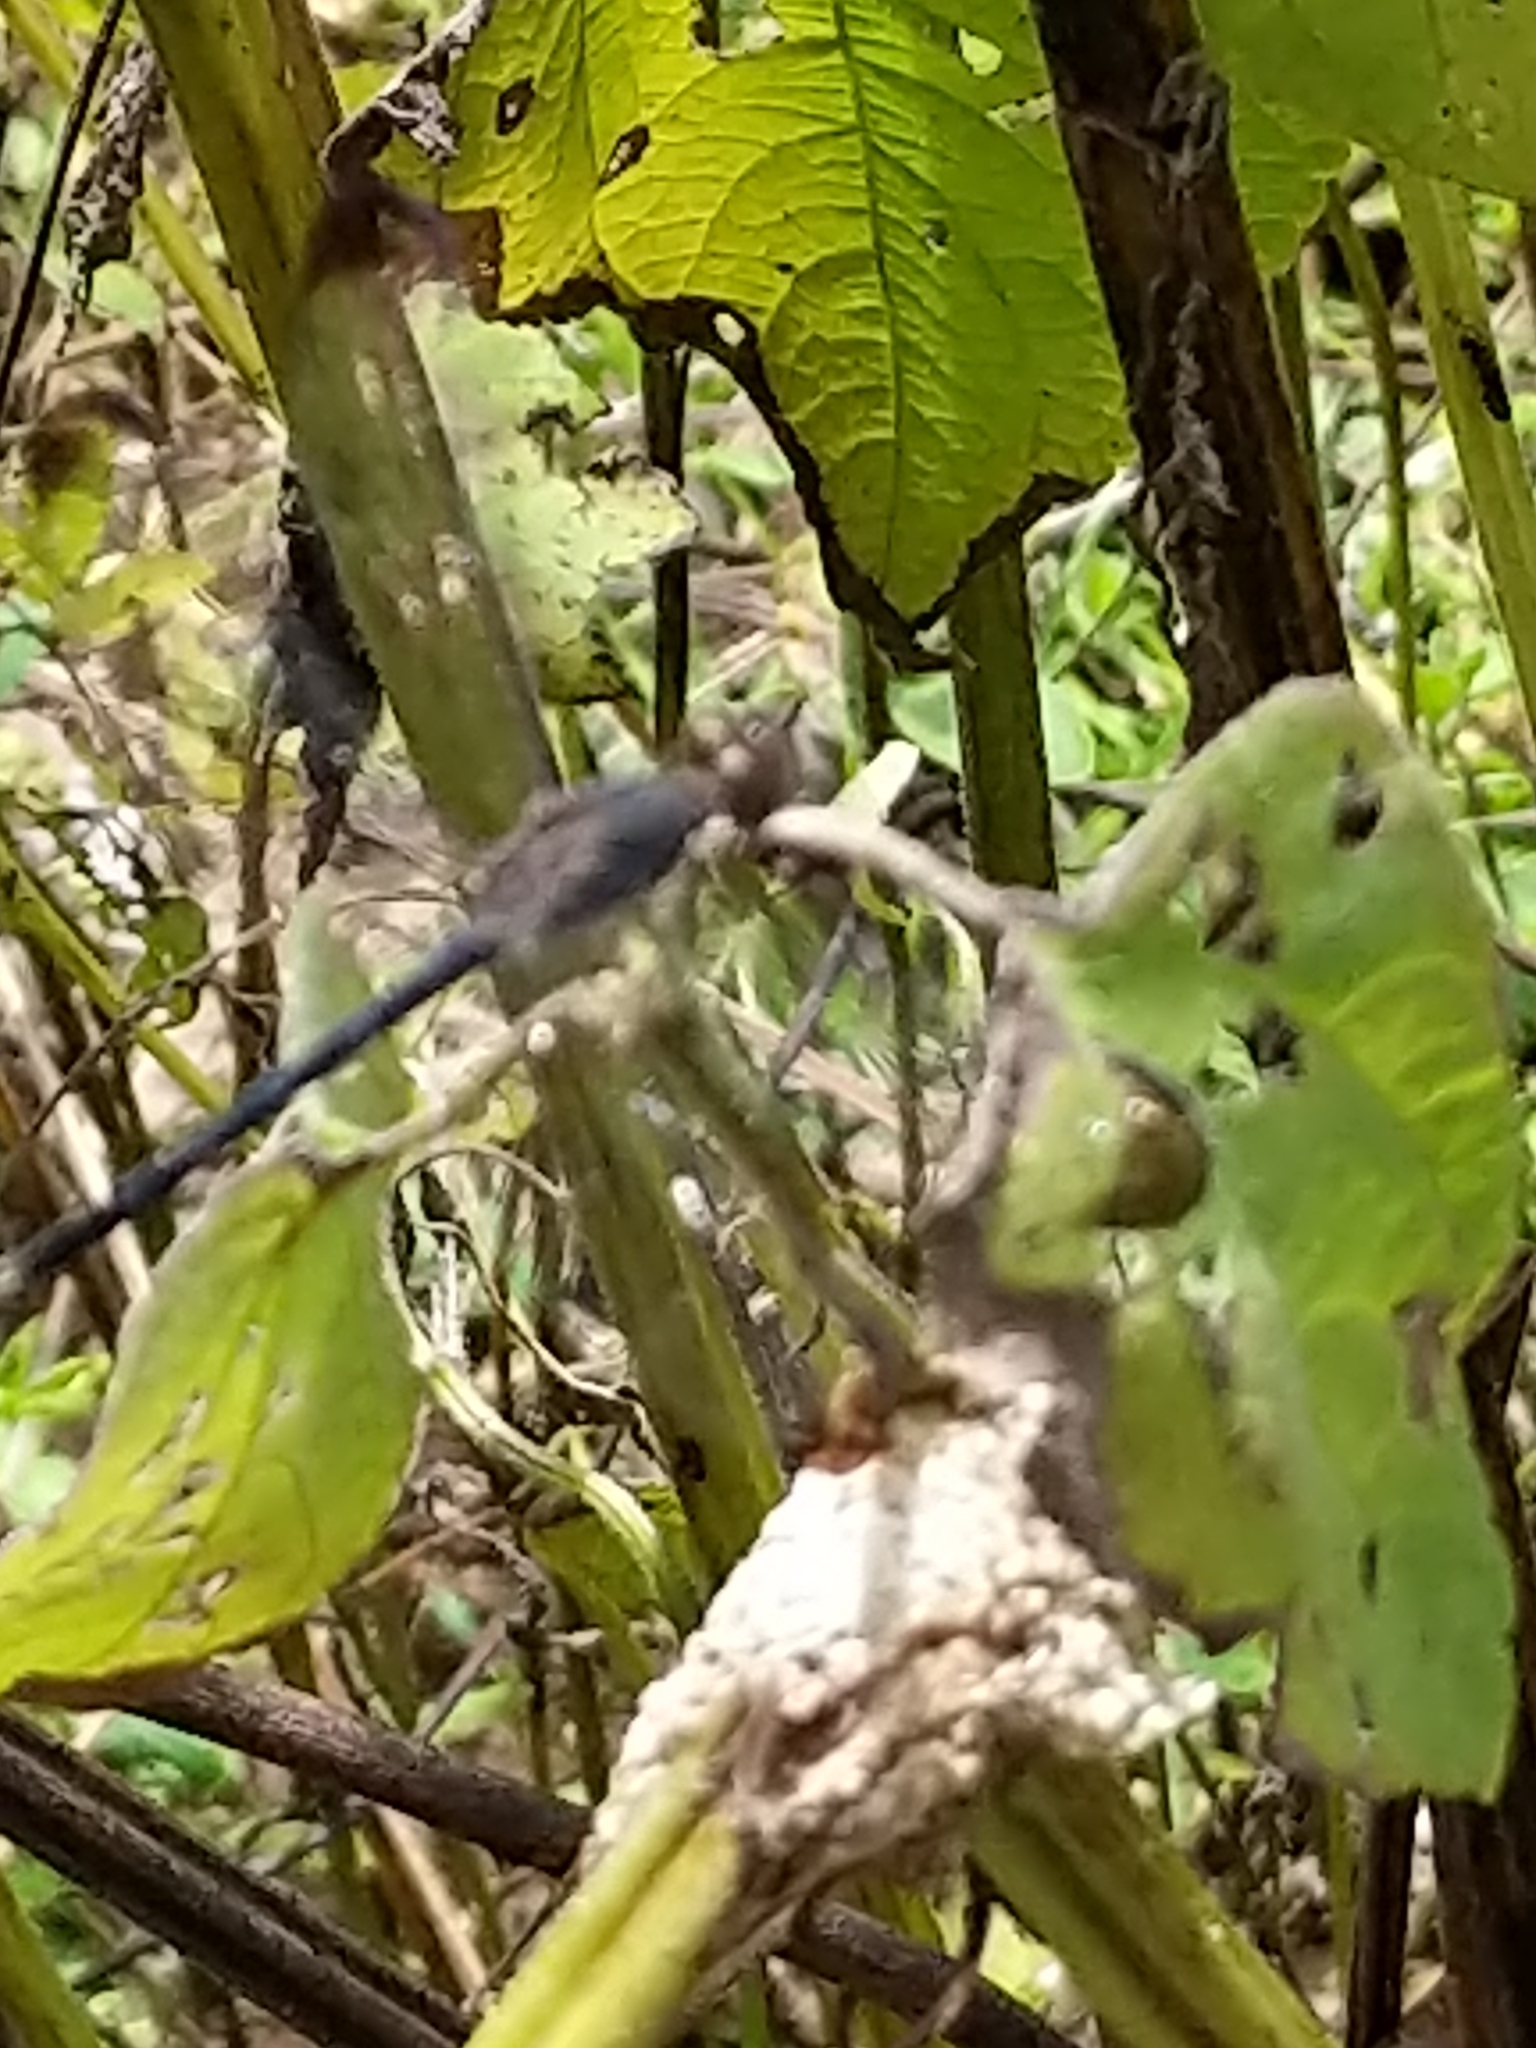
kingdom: Animalia
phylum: Arthropoda
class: Insecta
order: Odonata
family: Libellulidae
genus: Uracis
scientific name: Uracis imbuta
